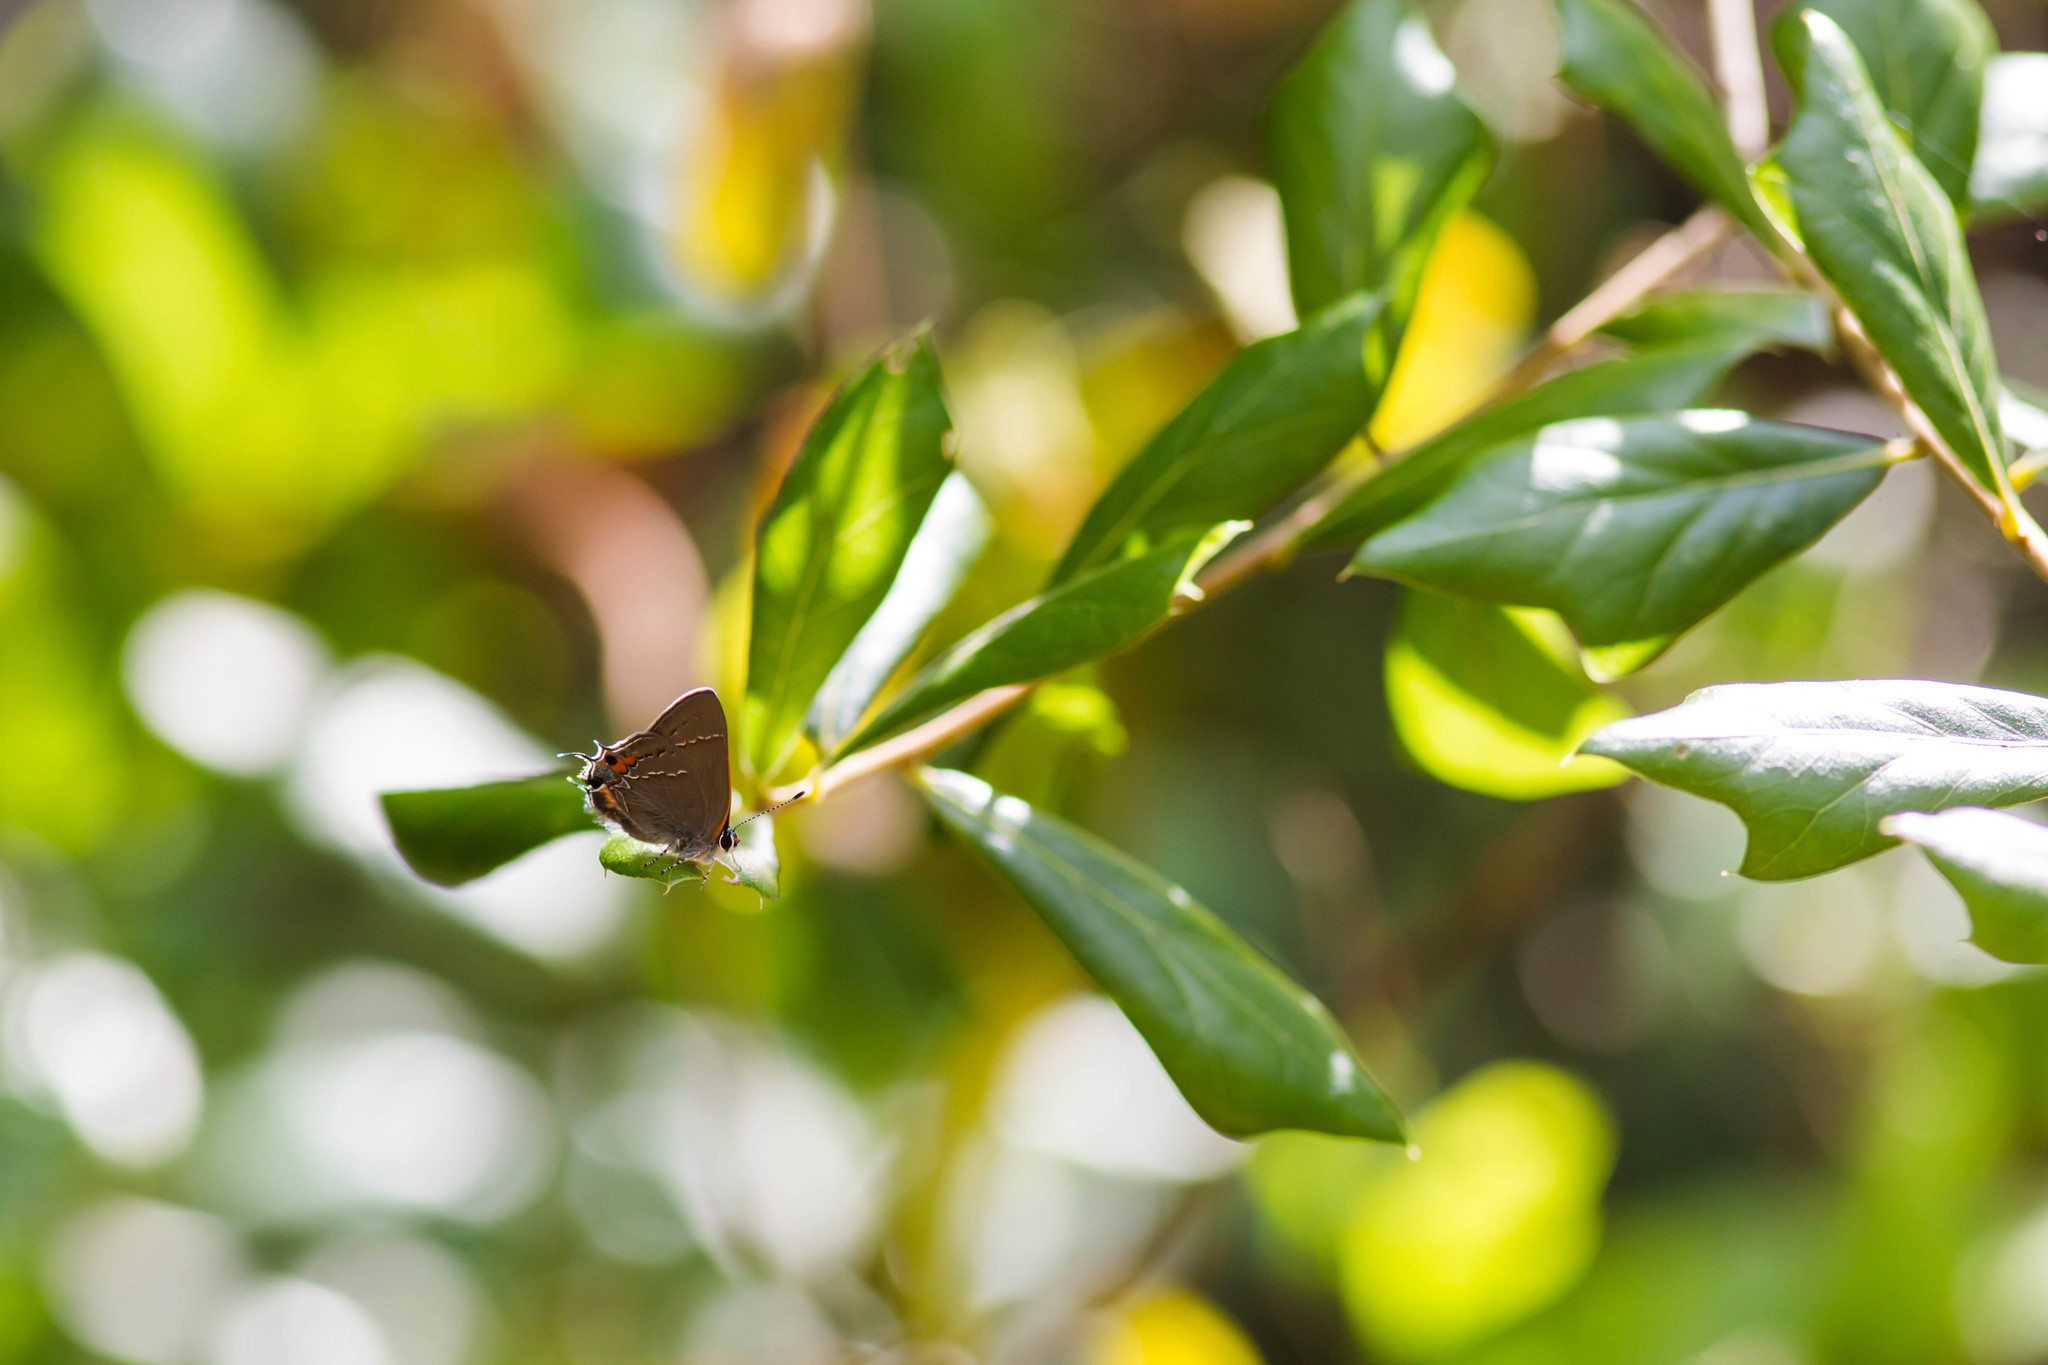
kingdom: Animalia
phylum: Arthropoda
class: Insecta
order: Lepidoptera
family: Lycaenidae
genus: Fixsenia
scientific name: Fixsenia ontario
